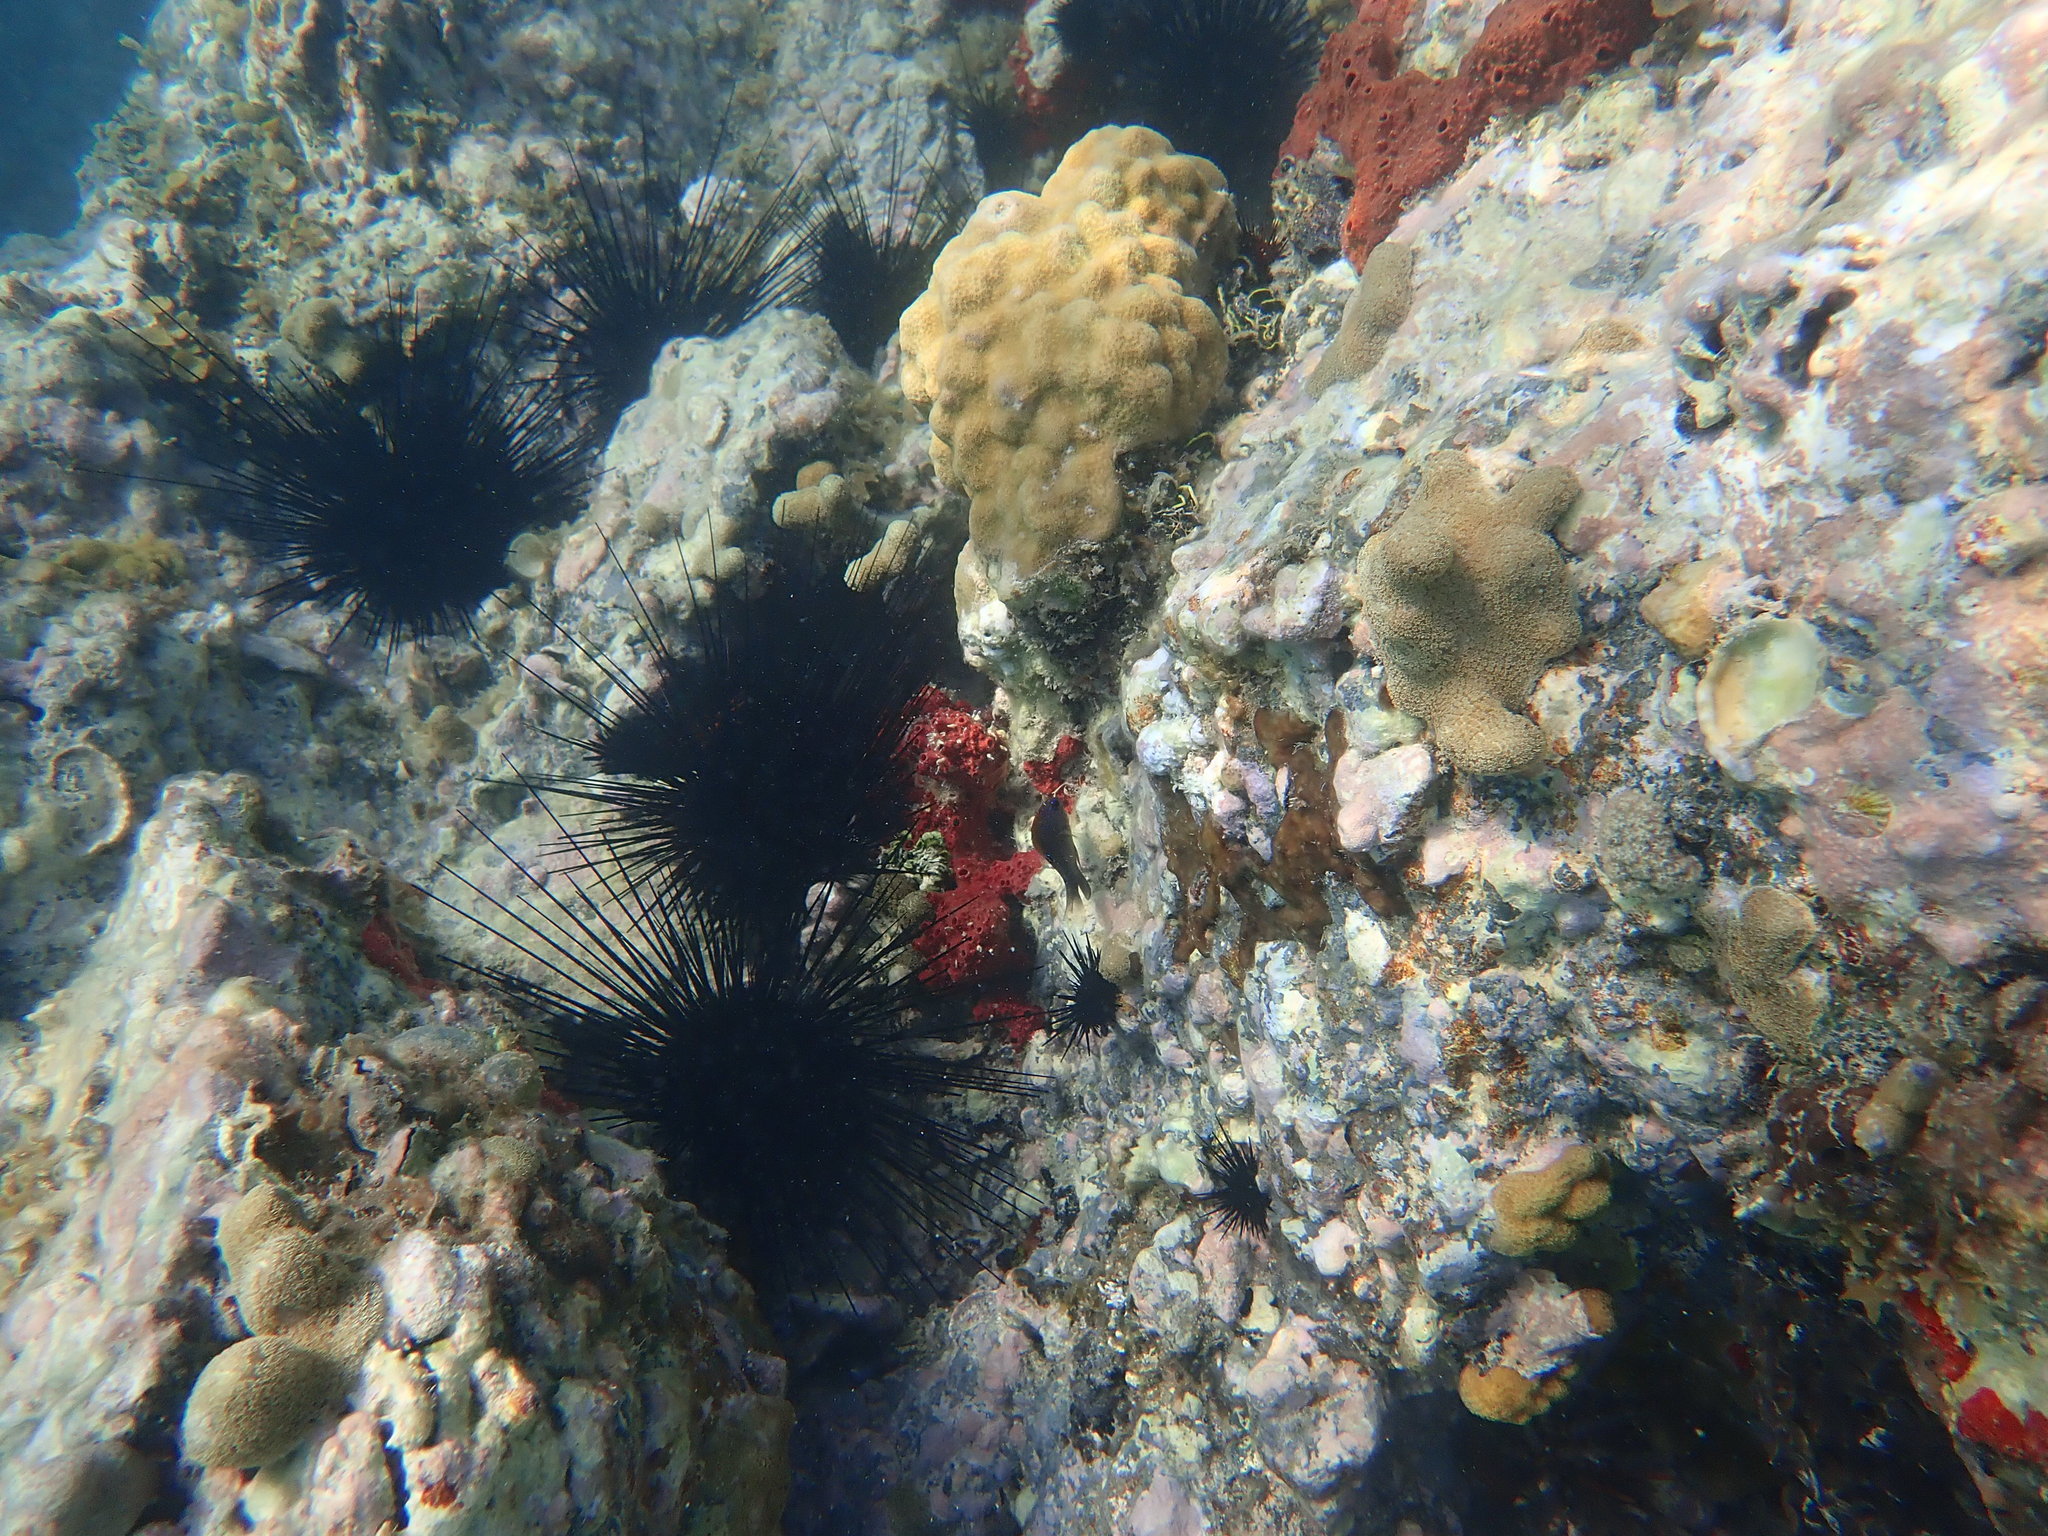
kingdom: Animalia
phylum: Echinodermata
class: Echinoidea
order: Diadematoida
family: Diadematidae
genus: Diadema
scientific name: Diadema antillarum
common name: Spiny urchin
